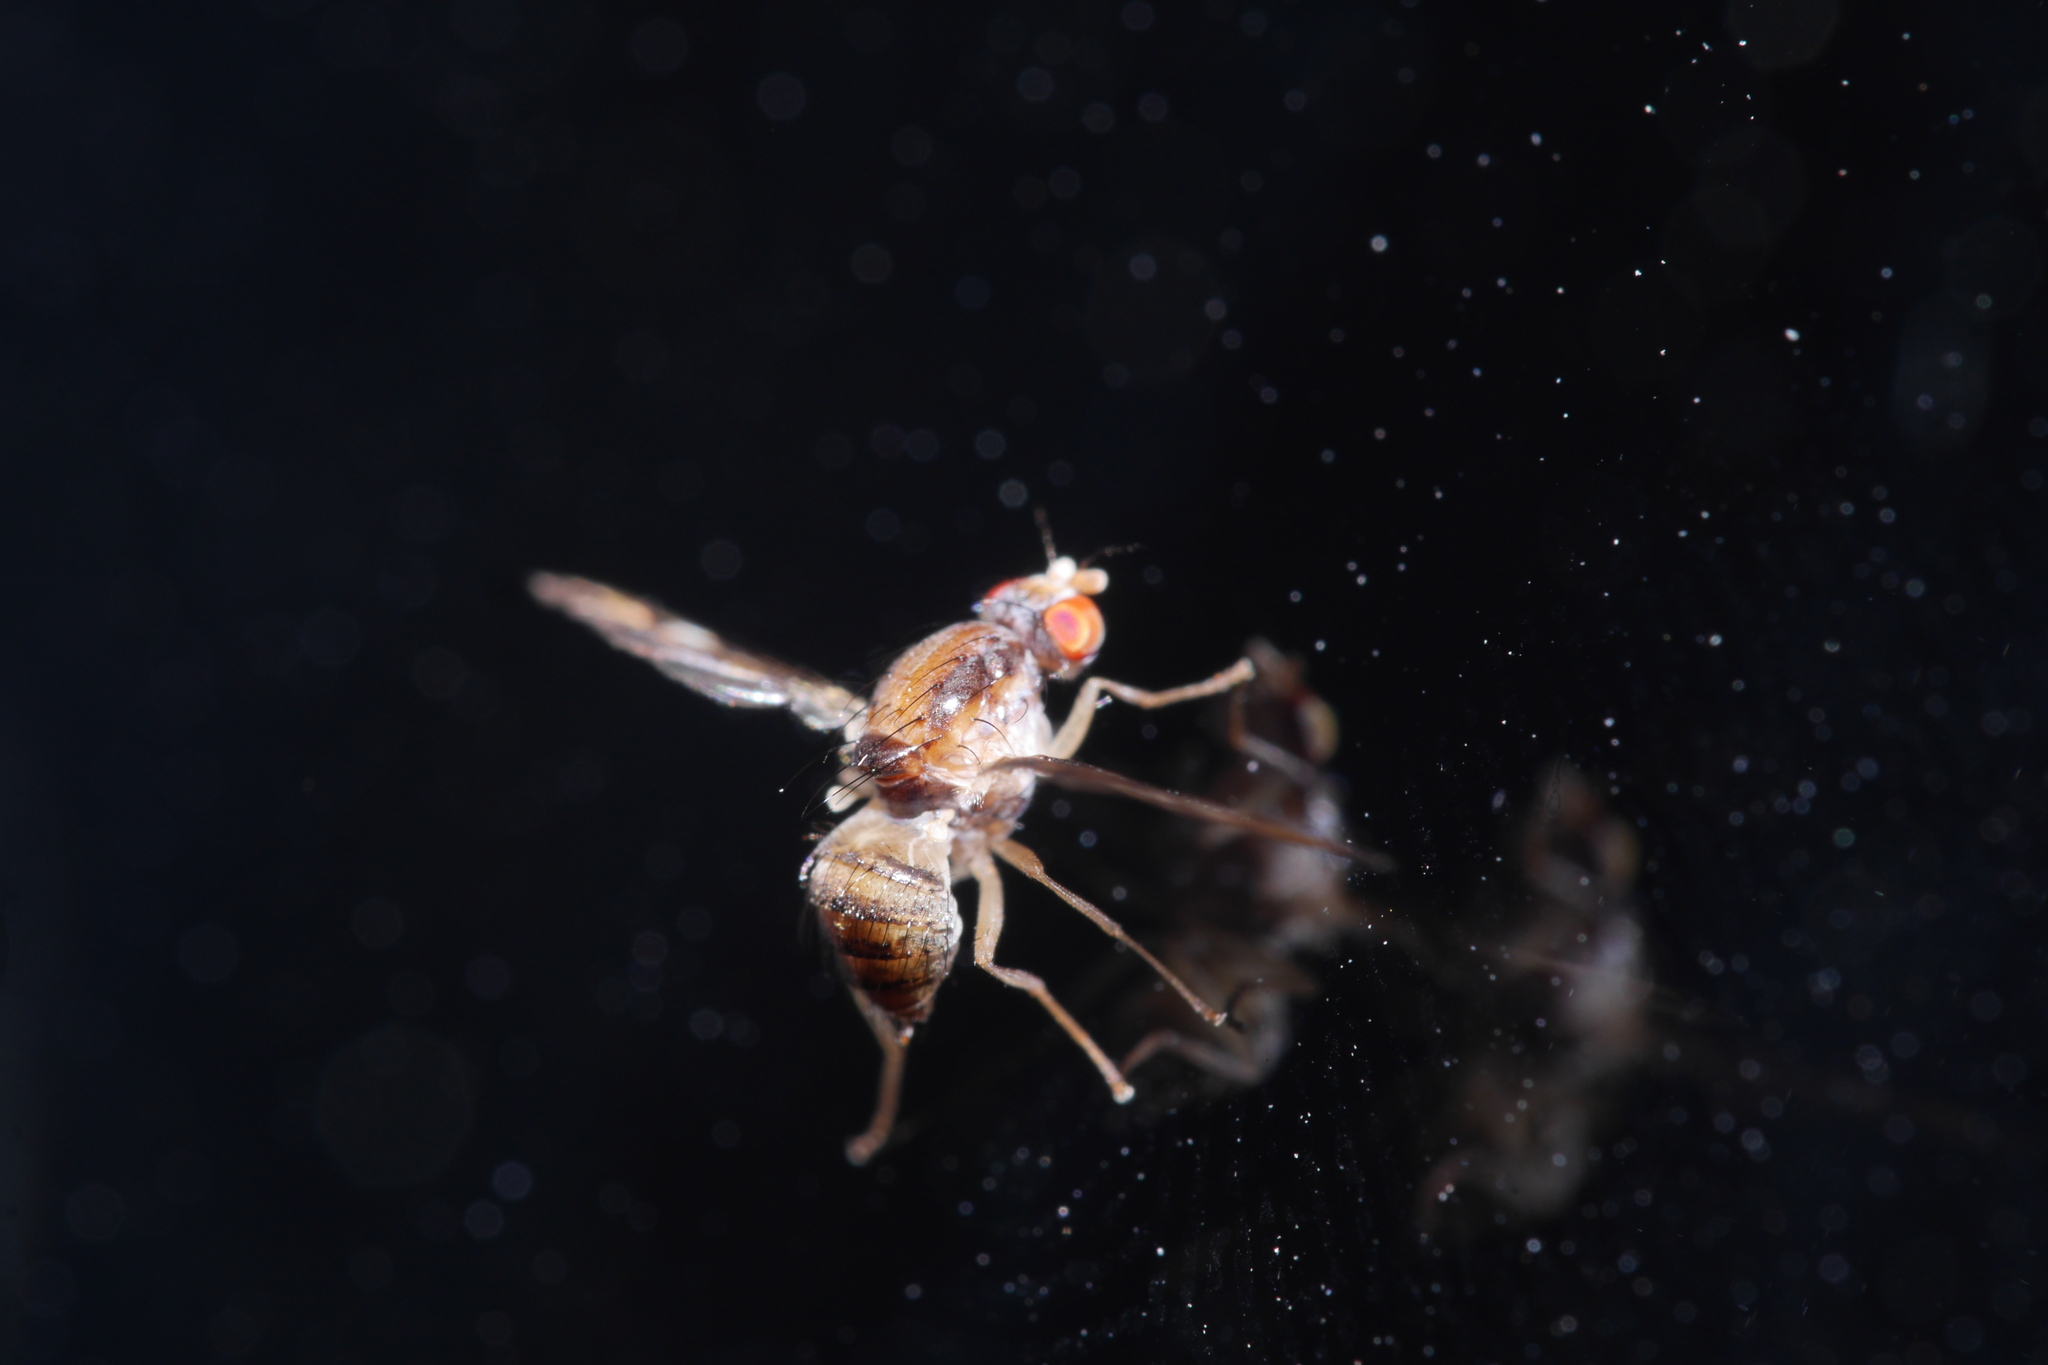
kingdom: Animalia
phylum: Arthropoda
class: Insecta
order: Diptera
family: Pallopteridae
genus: Toxonevra
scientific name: Toxonevra muliebris
